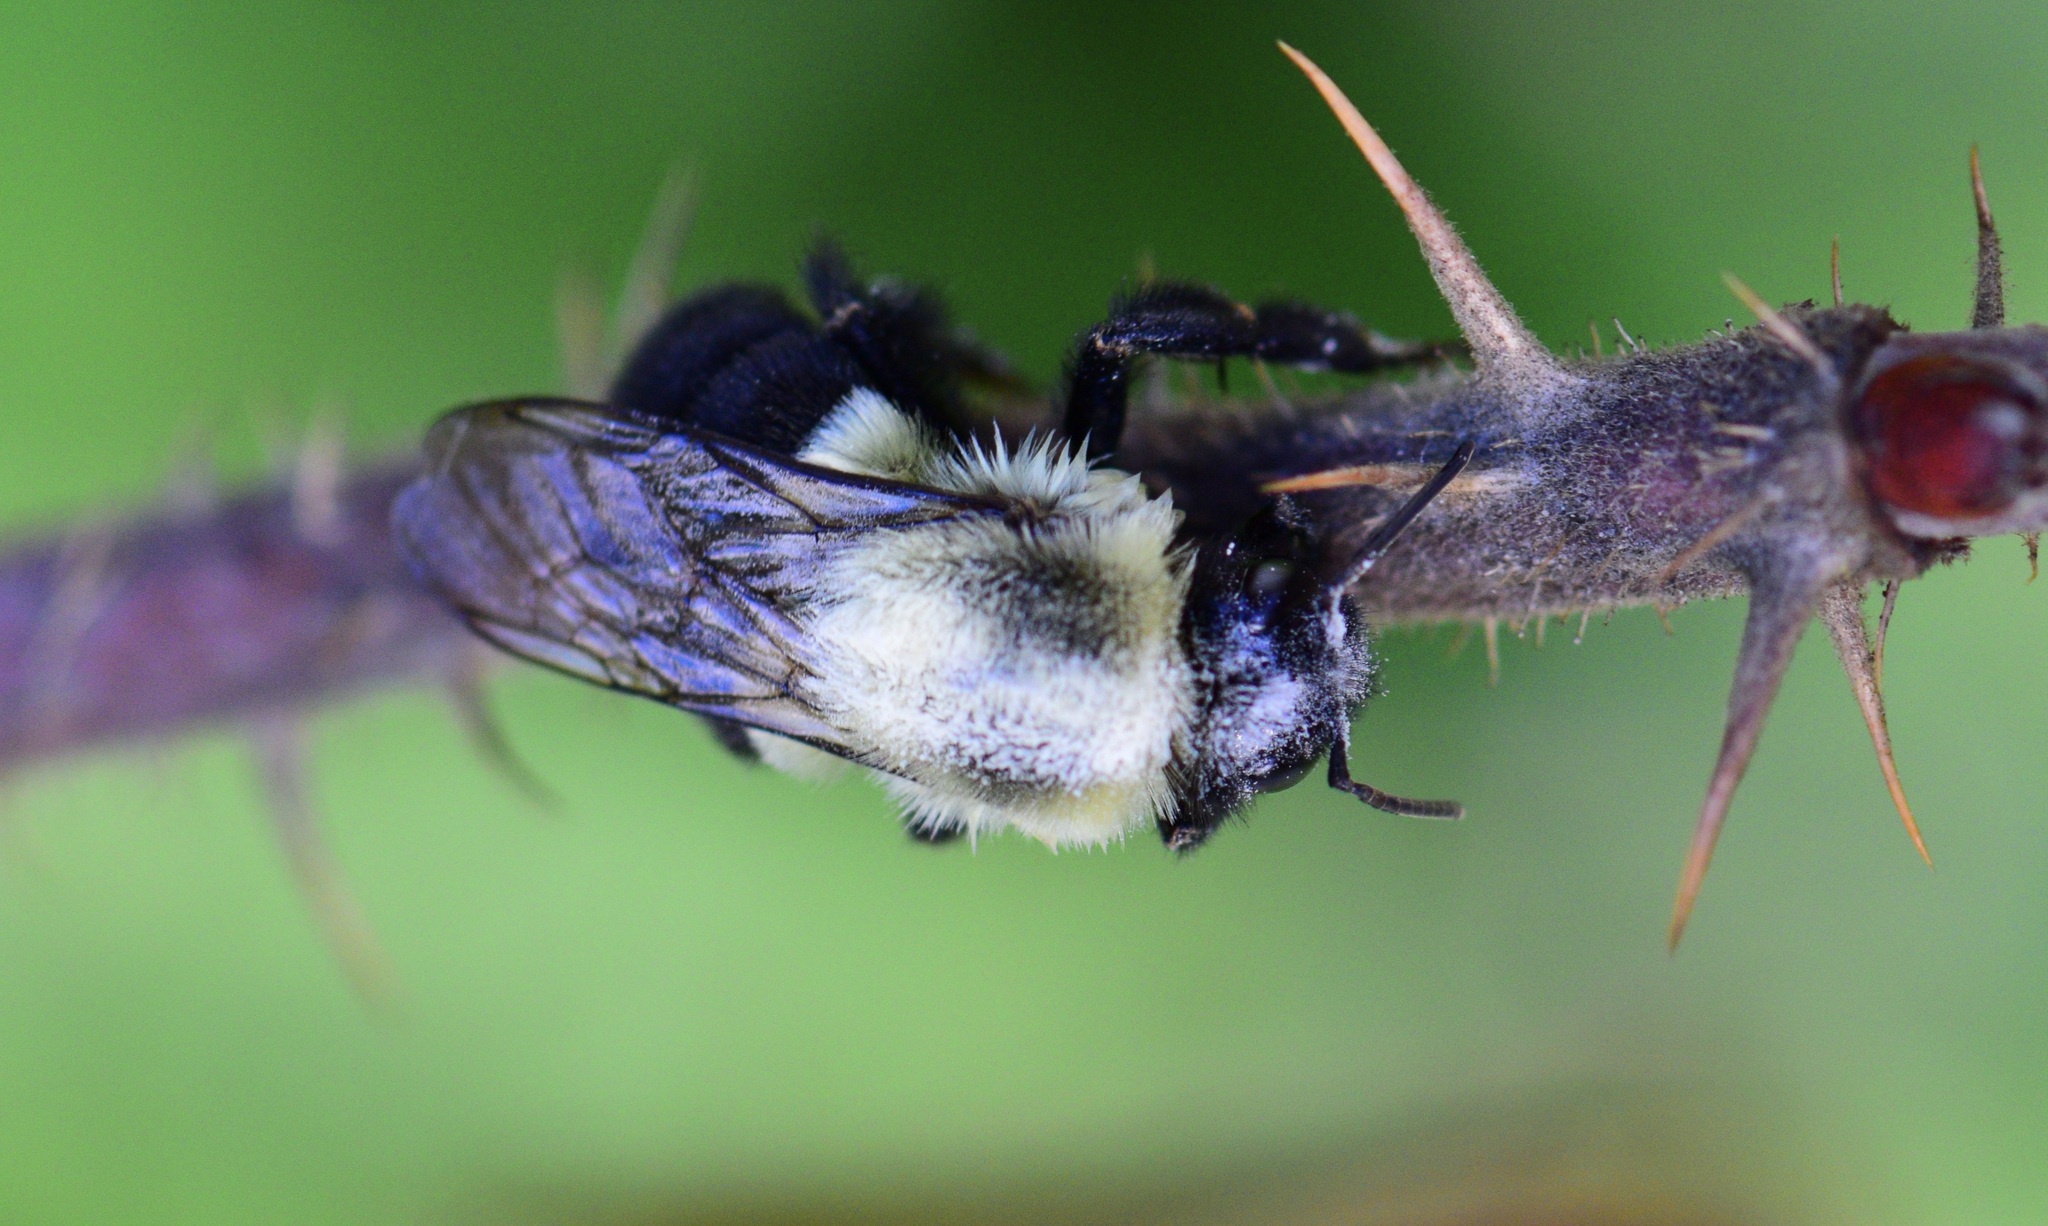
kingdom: Animalia
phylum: Arthropoda
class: Insecta
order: Hymenoptera
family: Apidae
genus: Bombus
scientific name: Bombus impatiens
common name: Common eastern bumble bee
